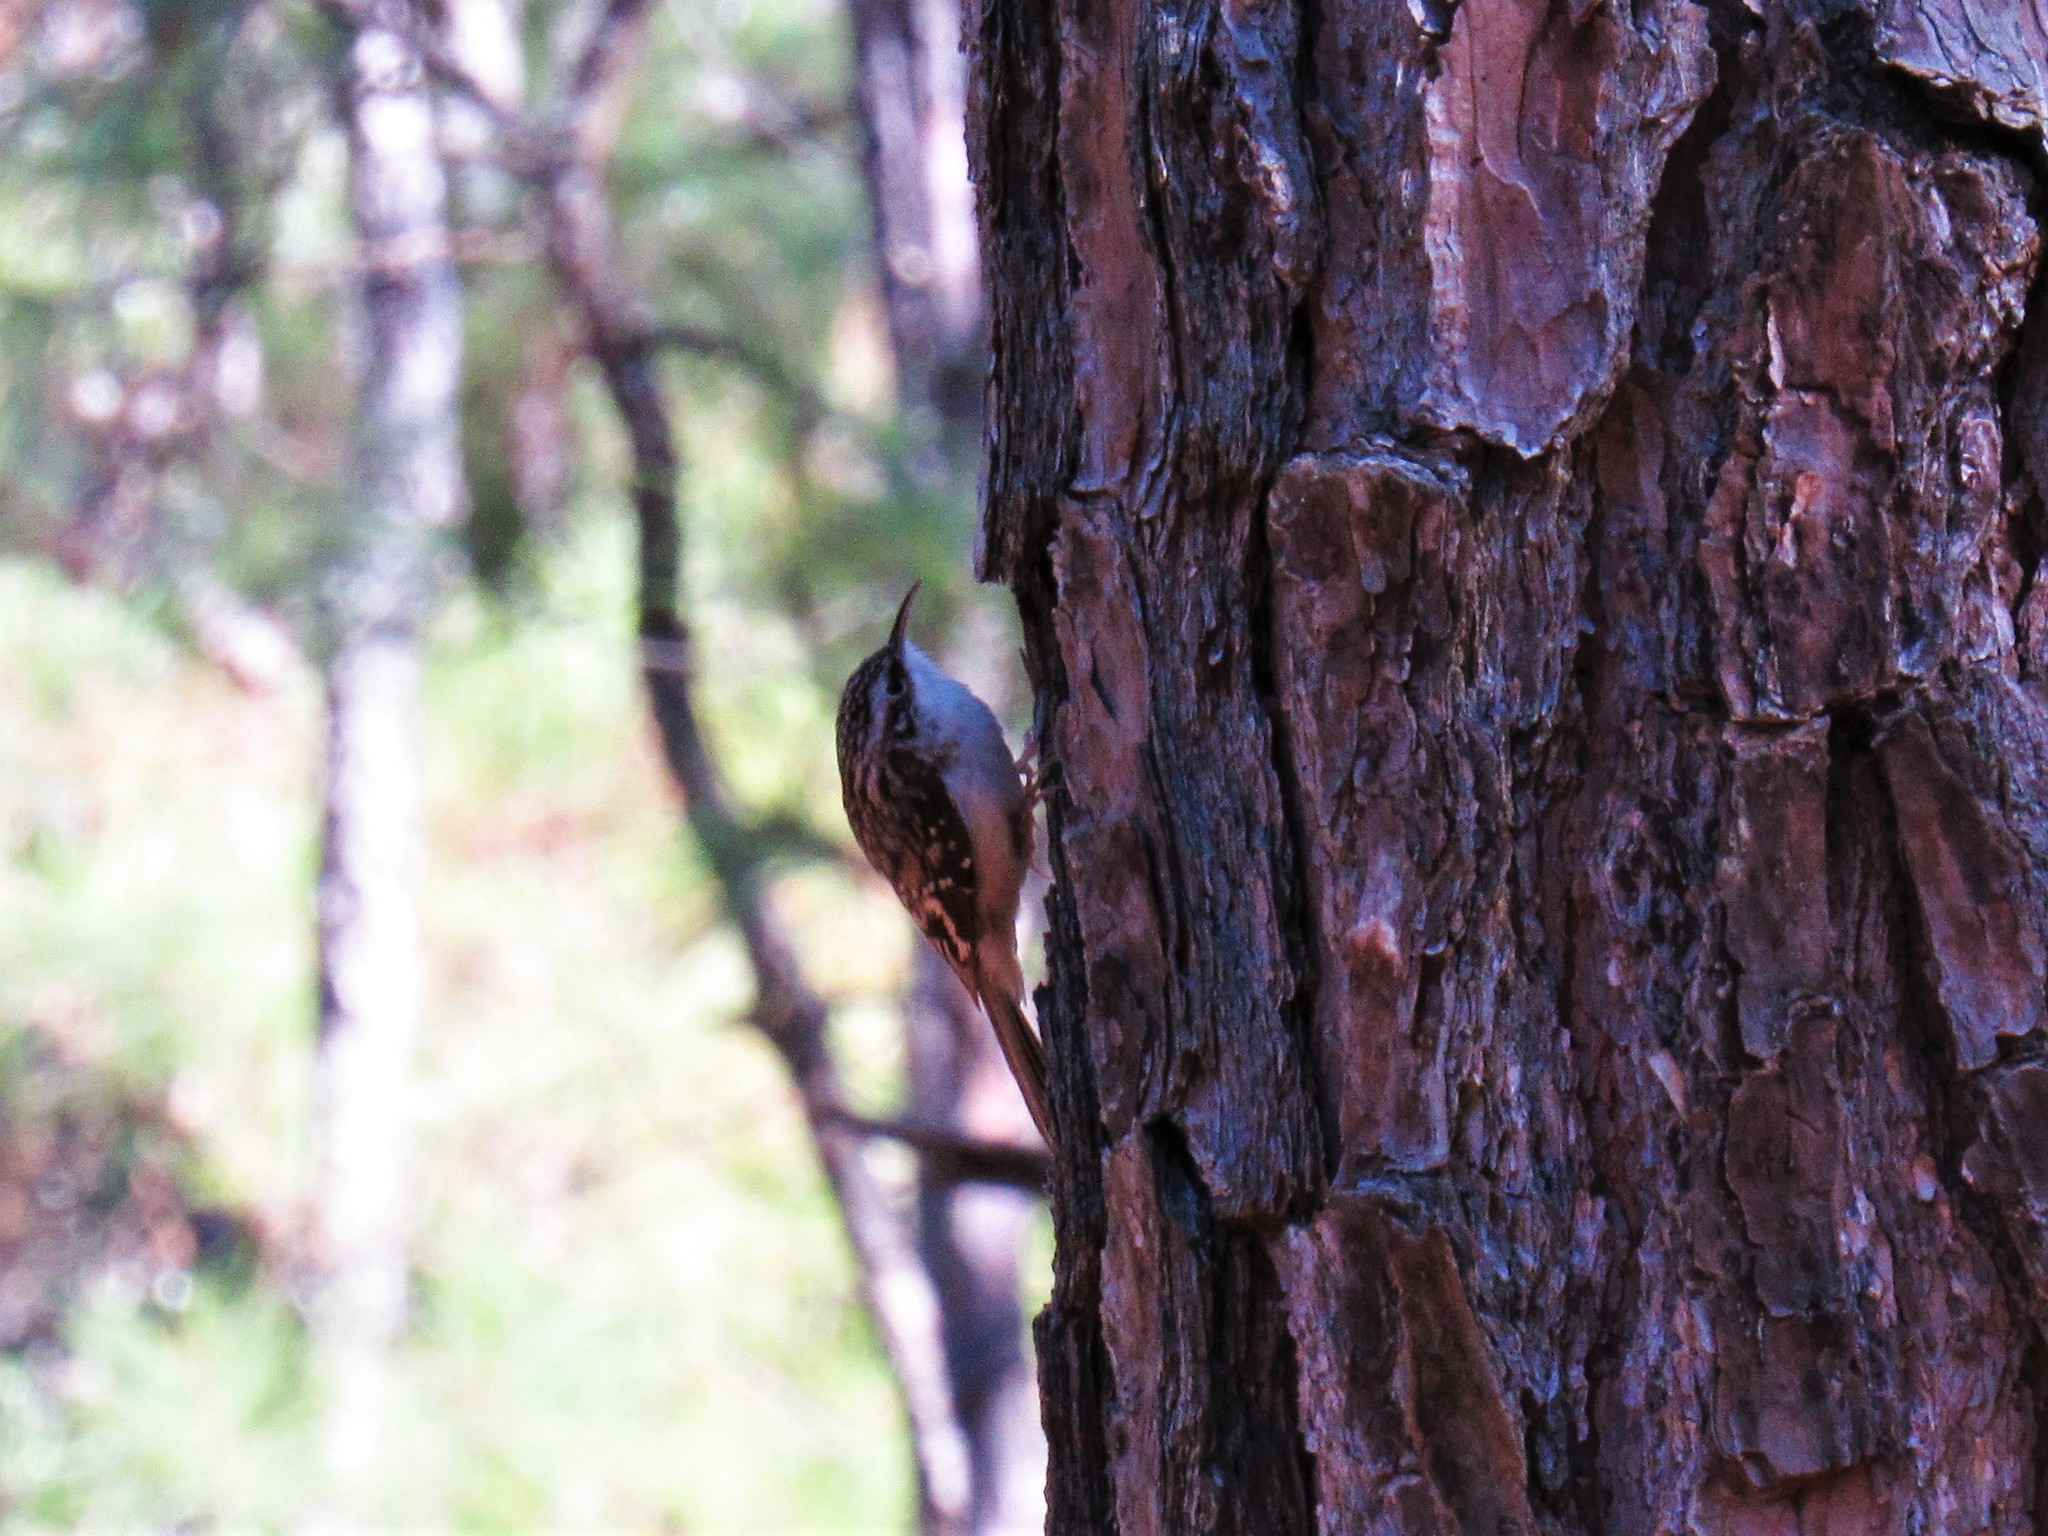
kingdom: Animalia
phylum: Chordata
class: Aves
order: Passeriformes
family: Certhiidae
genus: Certhia
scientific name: Certhia americana
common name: Brown creeper
